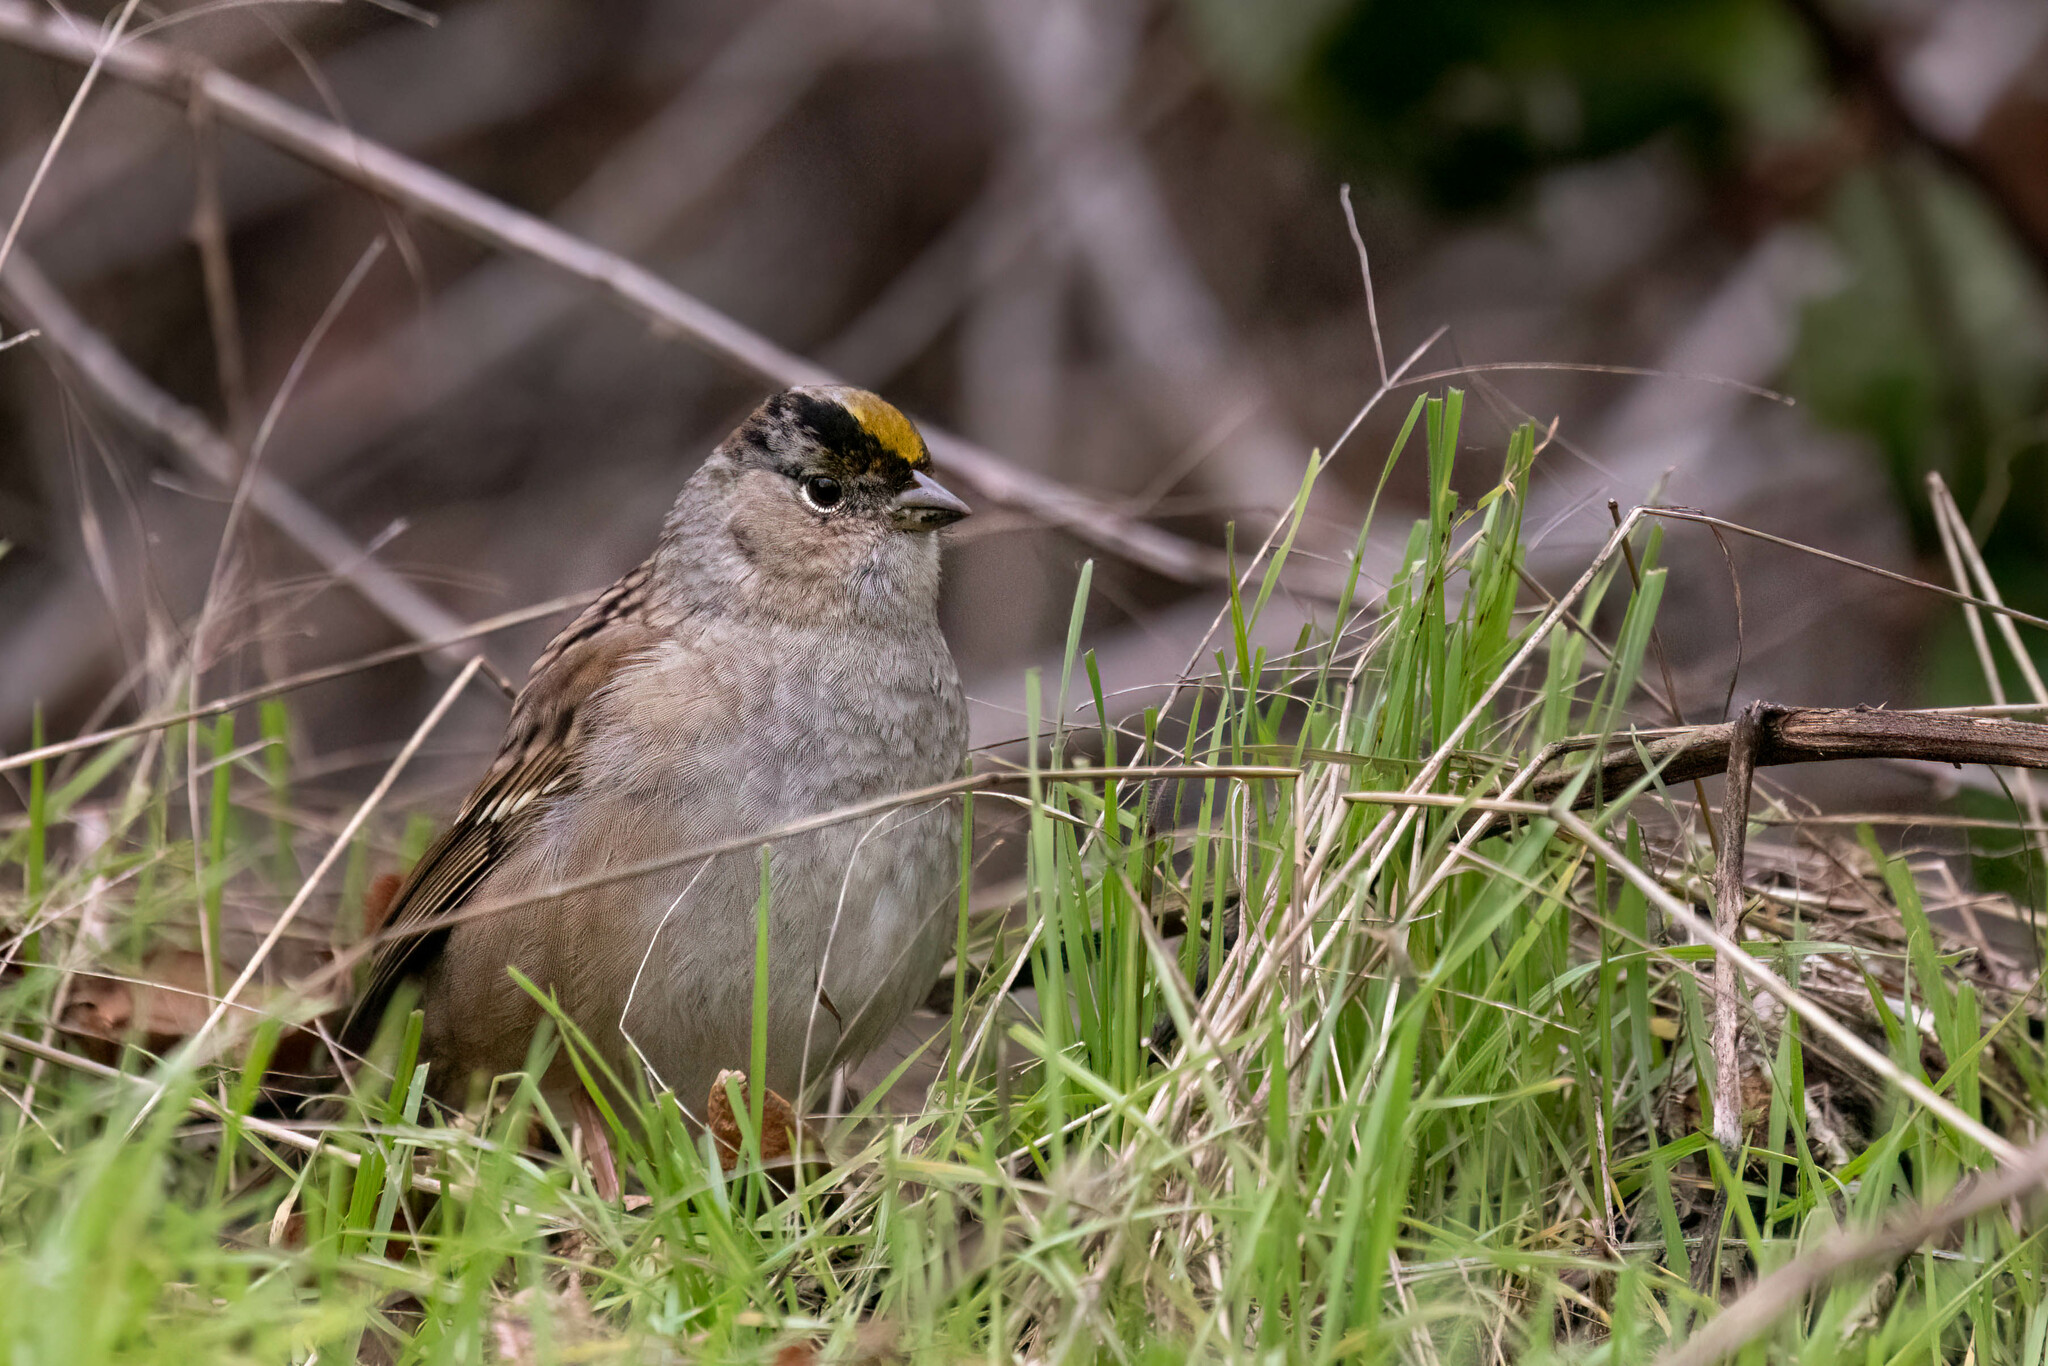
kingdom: Animalia
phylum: Chordata
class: Aves
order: Passeriformes
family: Passerellidae
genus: Zonotrichia
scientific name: Zonotrichia atricapilla
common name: Golden-crowned sparrow
